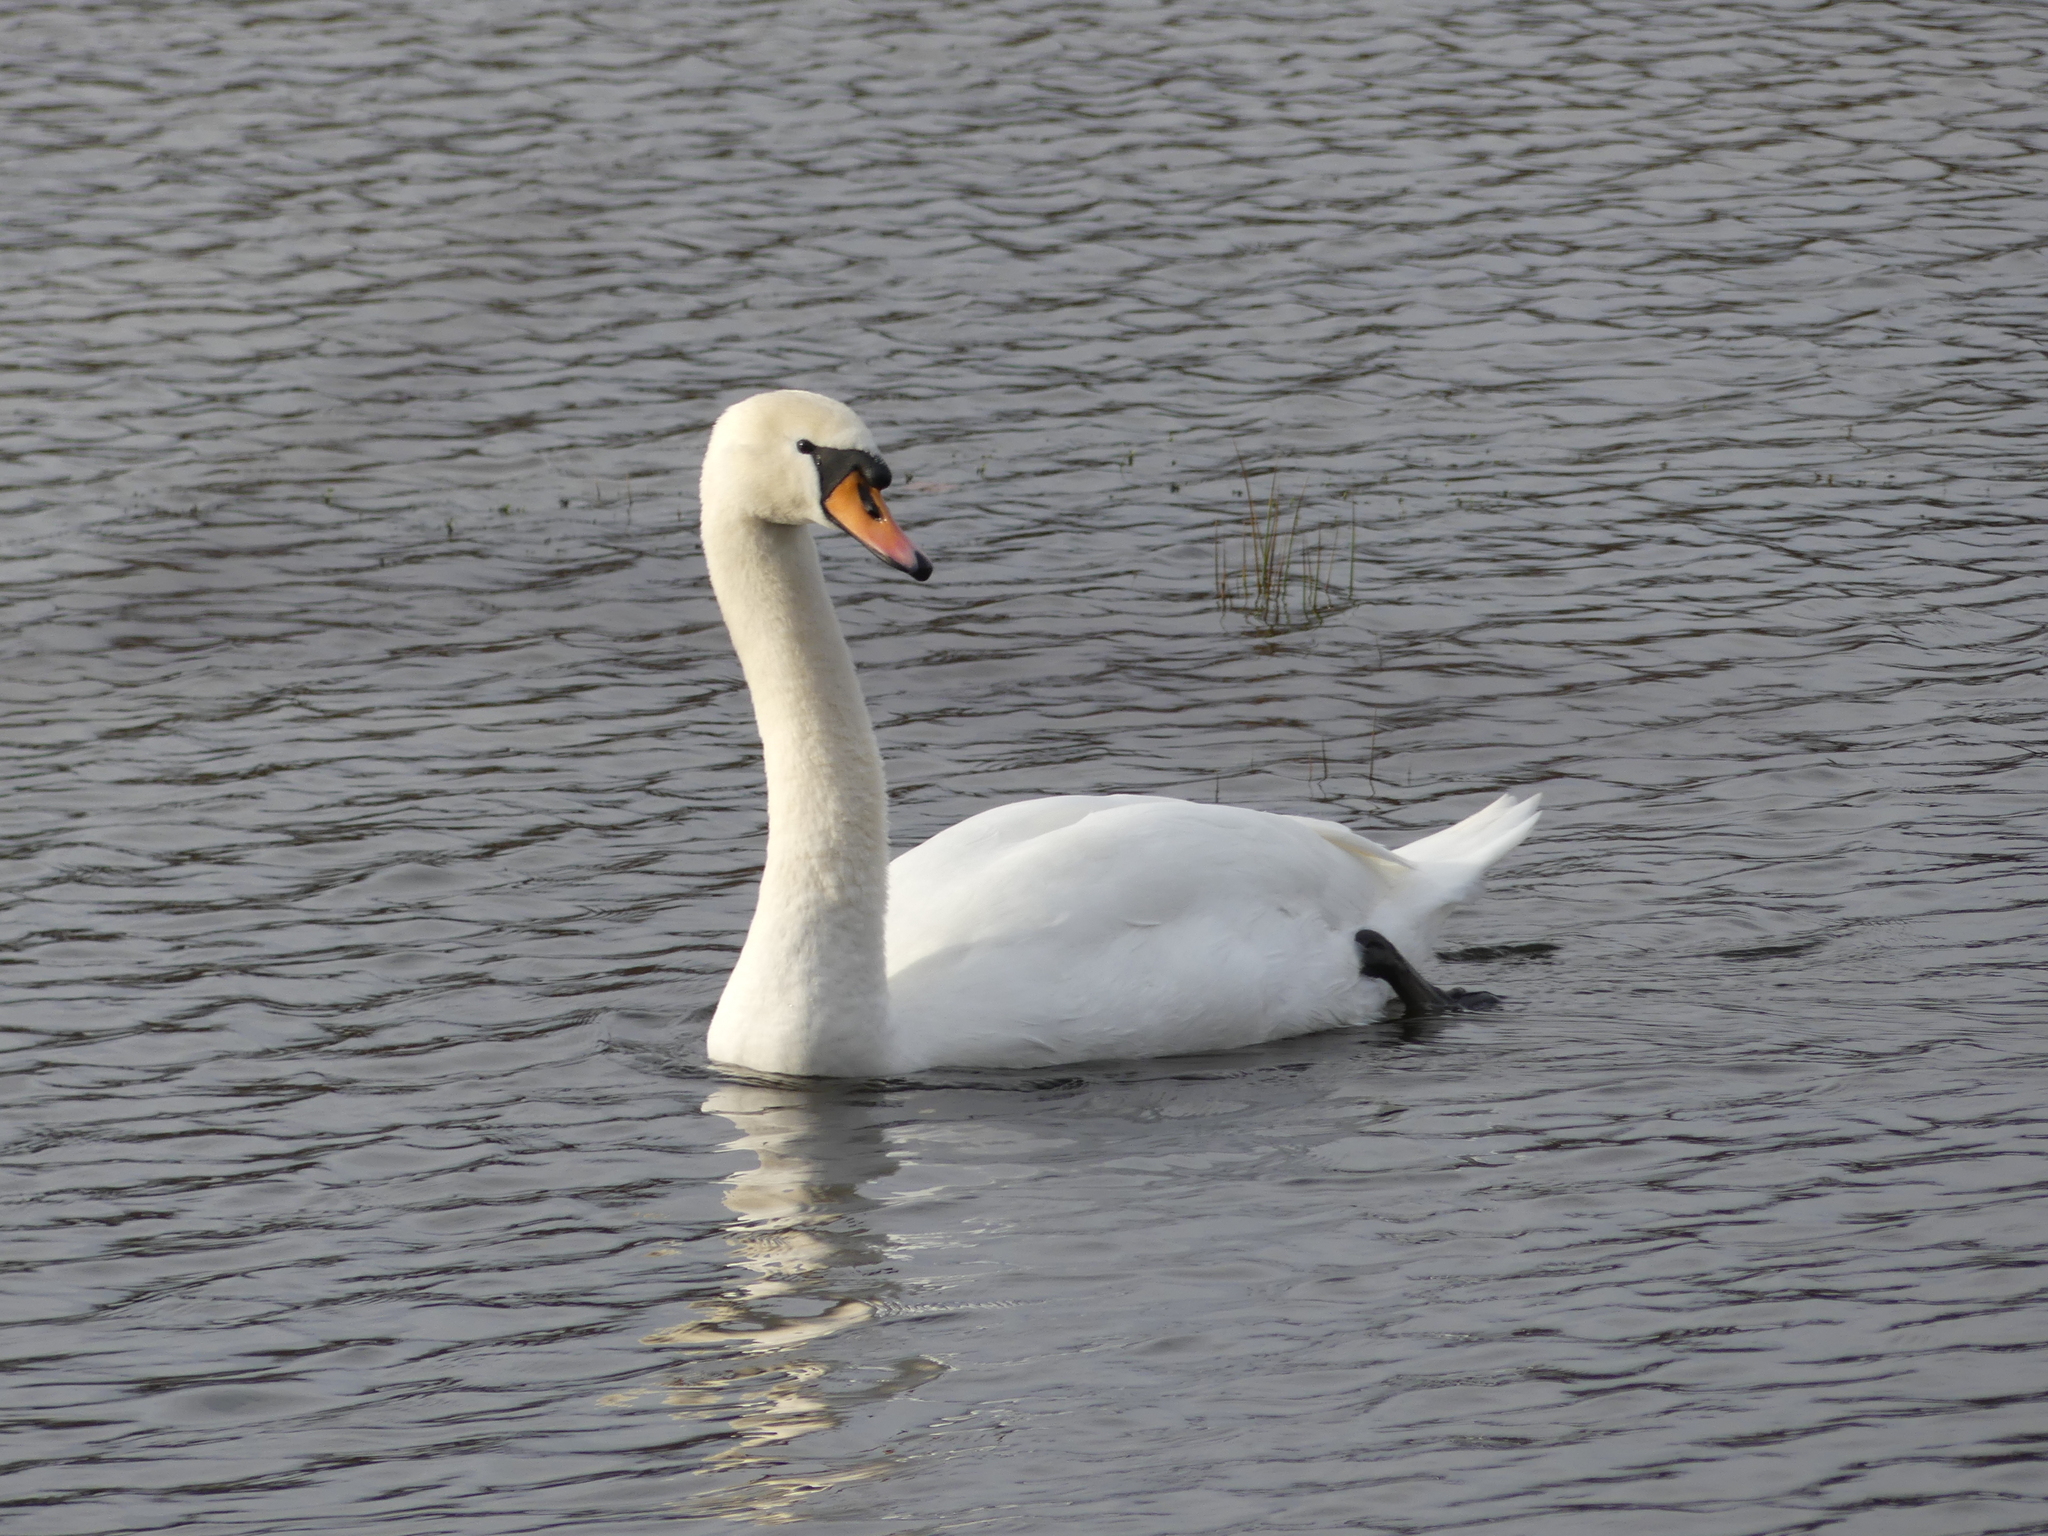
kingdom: Animalia
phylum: Chordata
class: Aves
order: Anseriformes
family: Anatidae
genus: Cygnus
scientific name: Cygnus olor
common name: Mute swan
